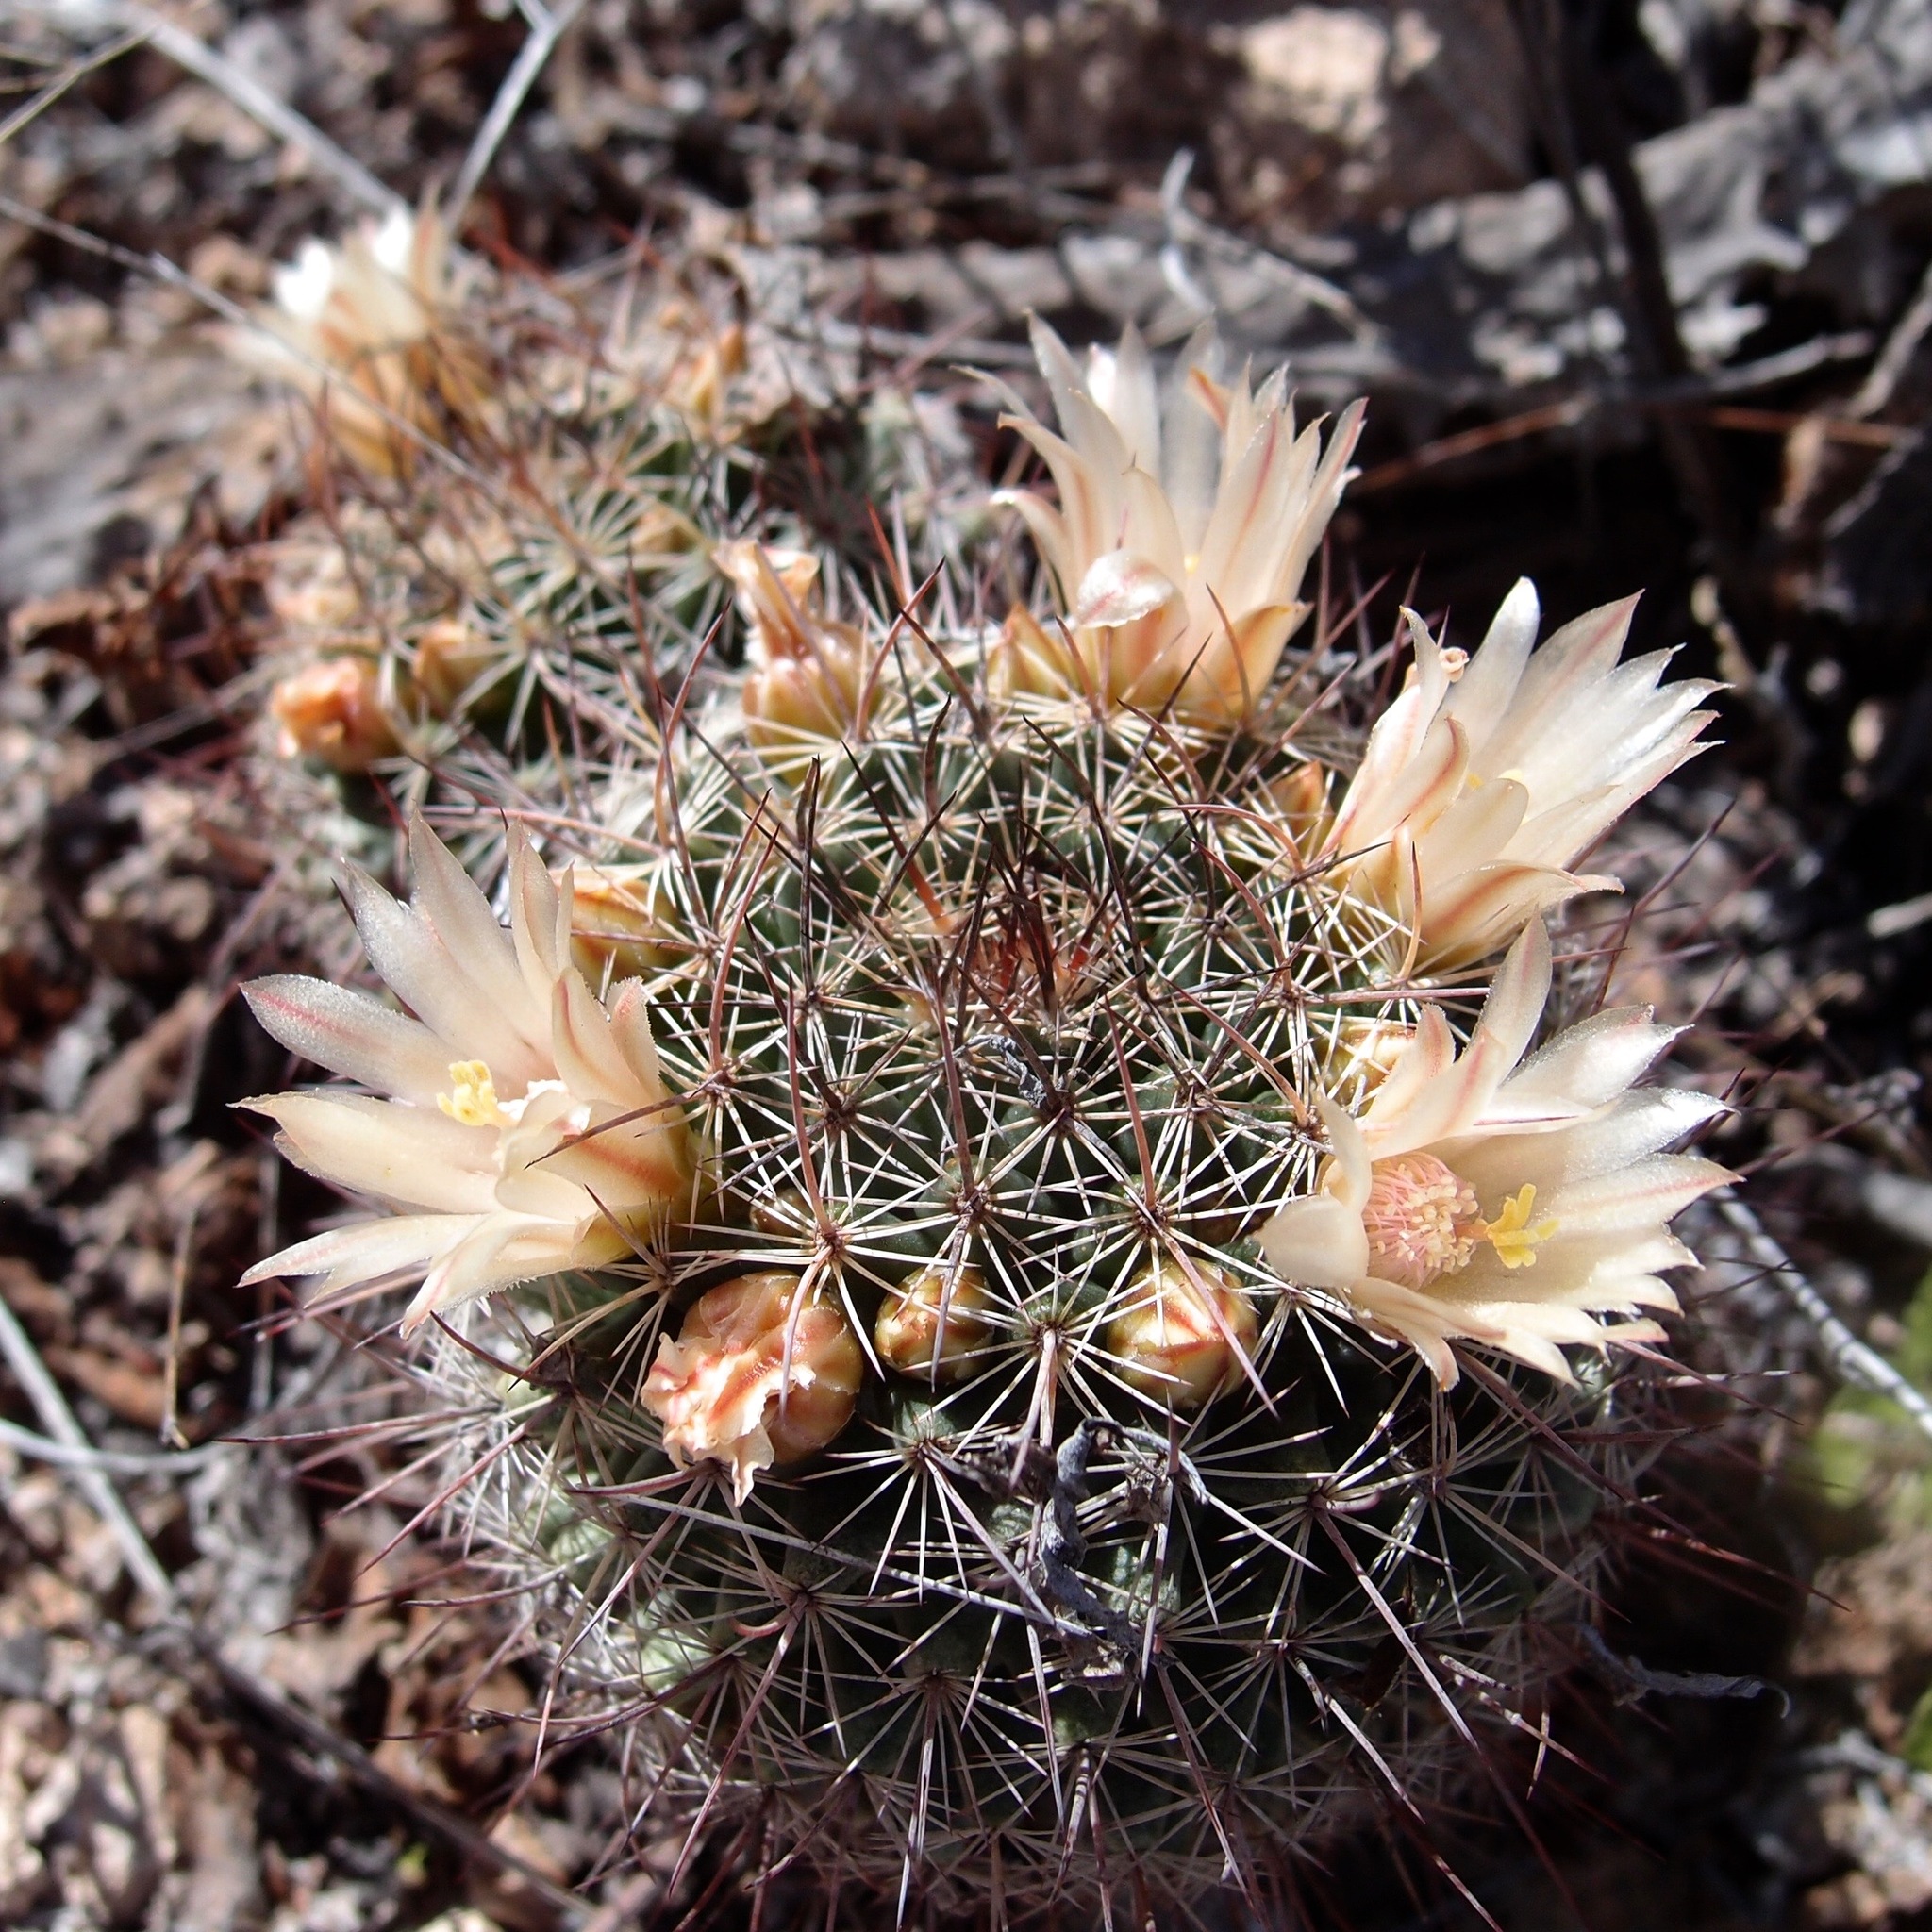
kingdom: Plantae
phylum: Tracheophyta
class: Magnoliopsida
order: Caryophyllales
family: Cactaceae
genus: Mammillaria
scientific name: Mammillaria johnstonii
